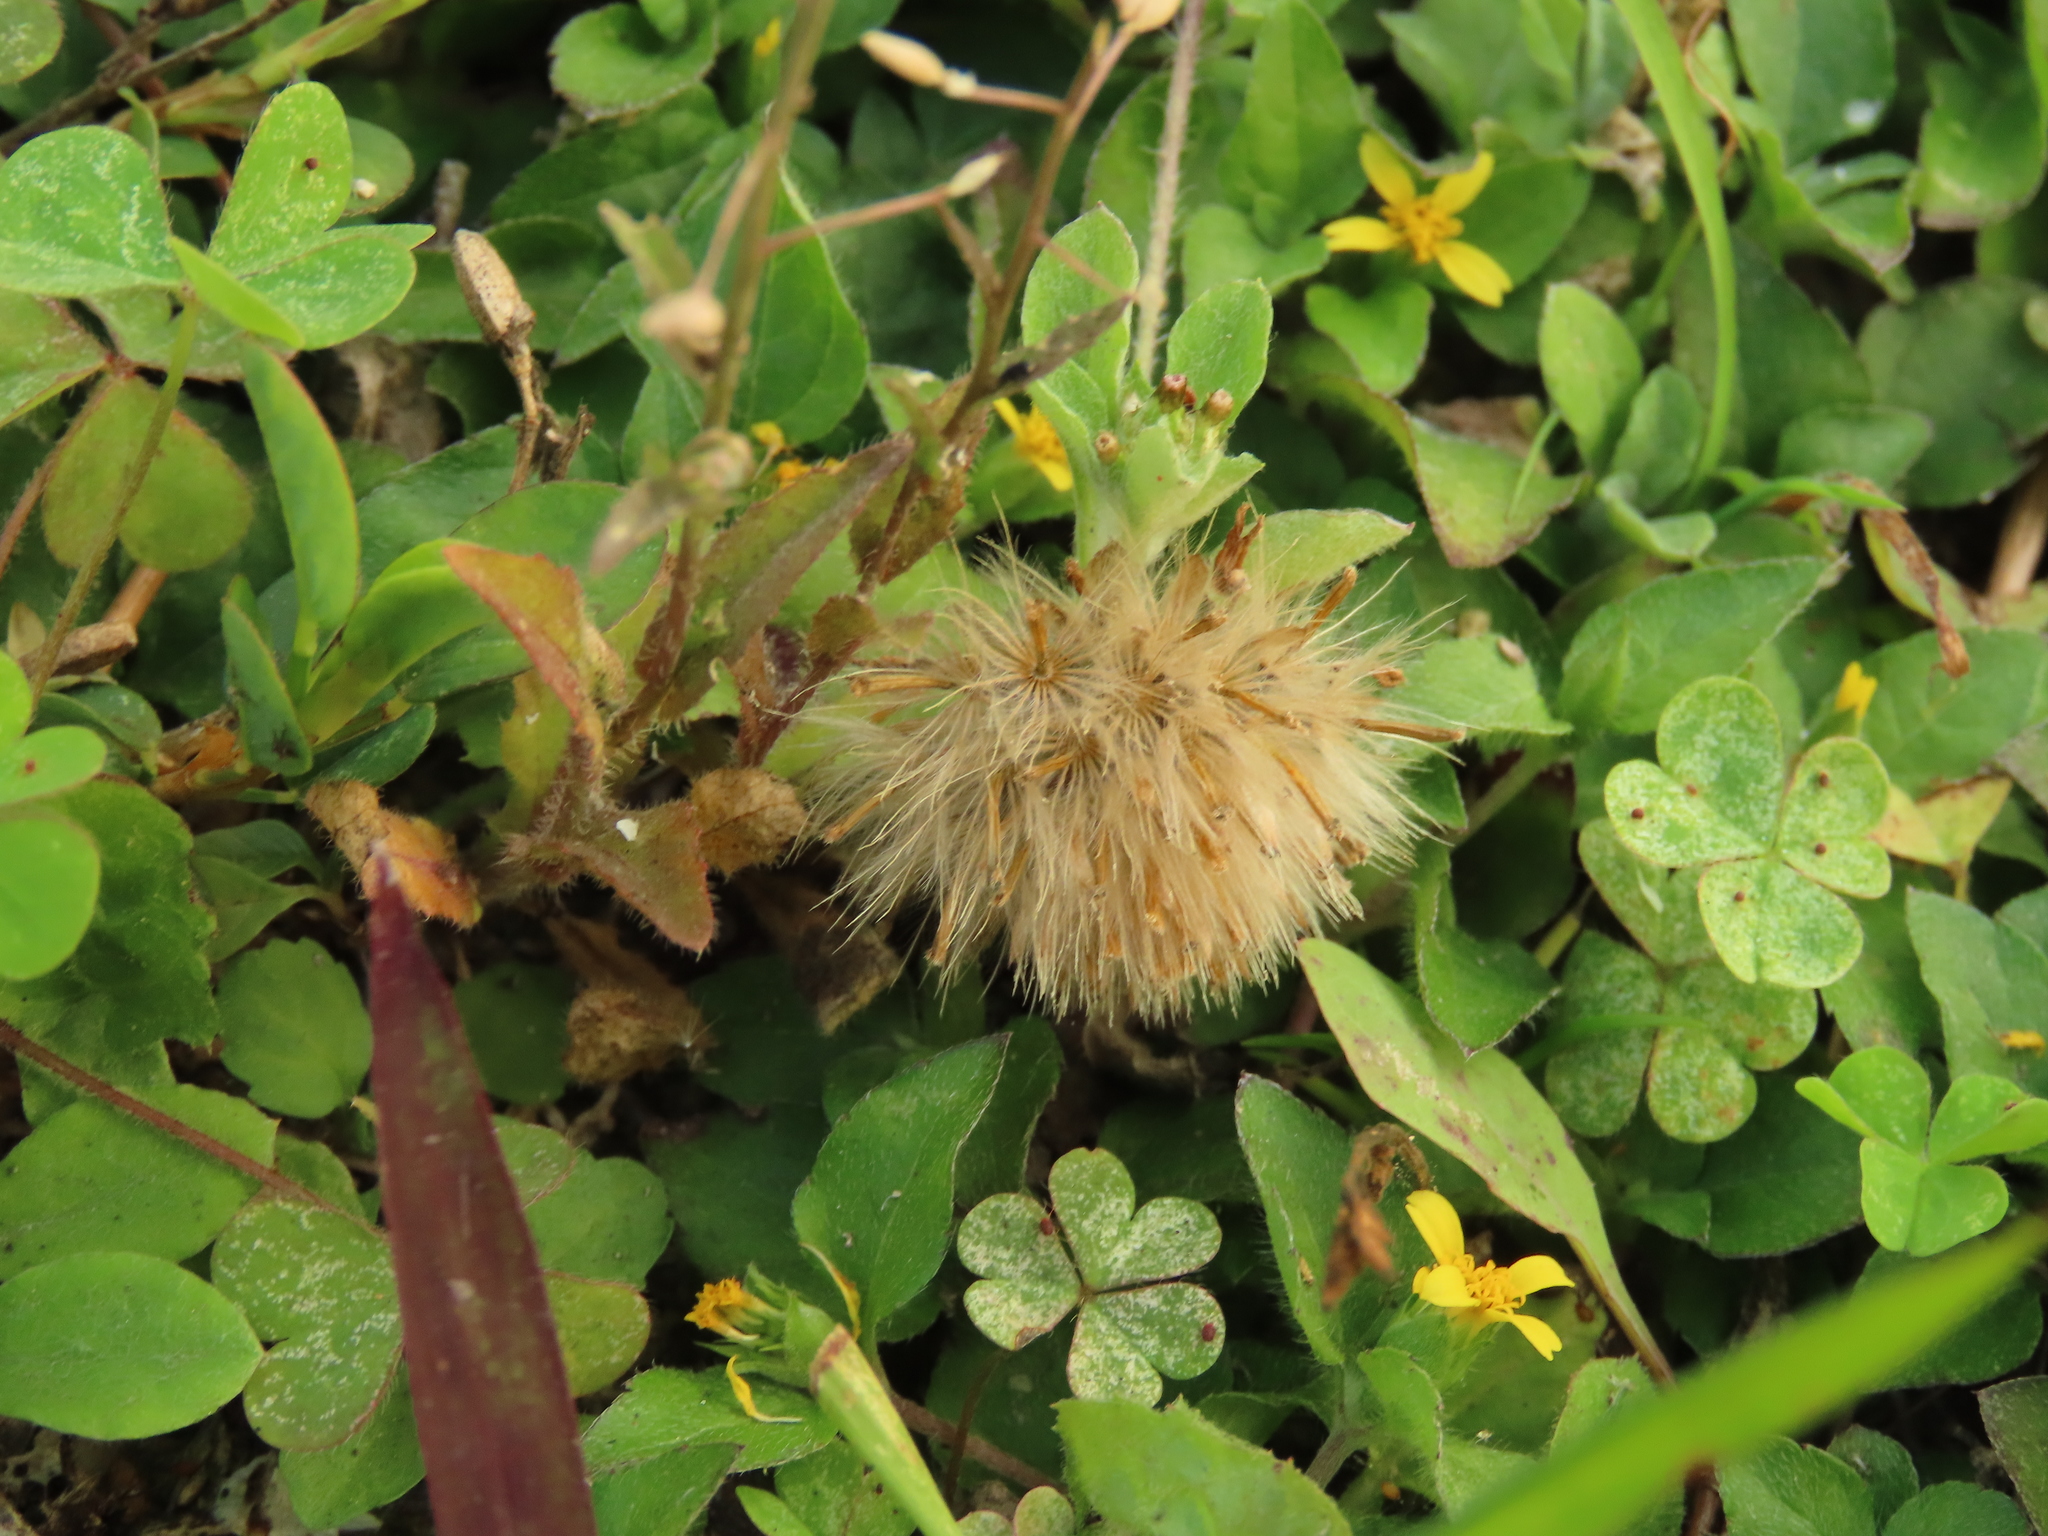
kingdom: Plantae
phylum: Tracheophyta
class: Magnoliopsida
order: Asterales
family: Asteraceae
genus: Tridax
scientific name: Tridax procumbens
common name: Coatbuttons
